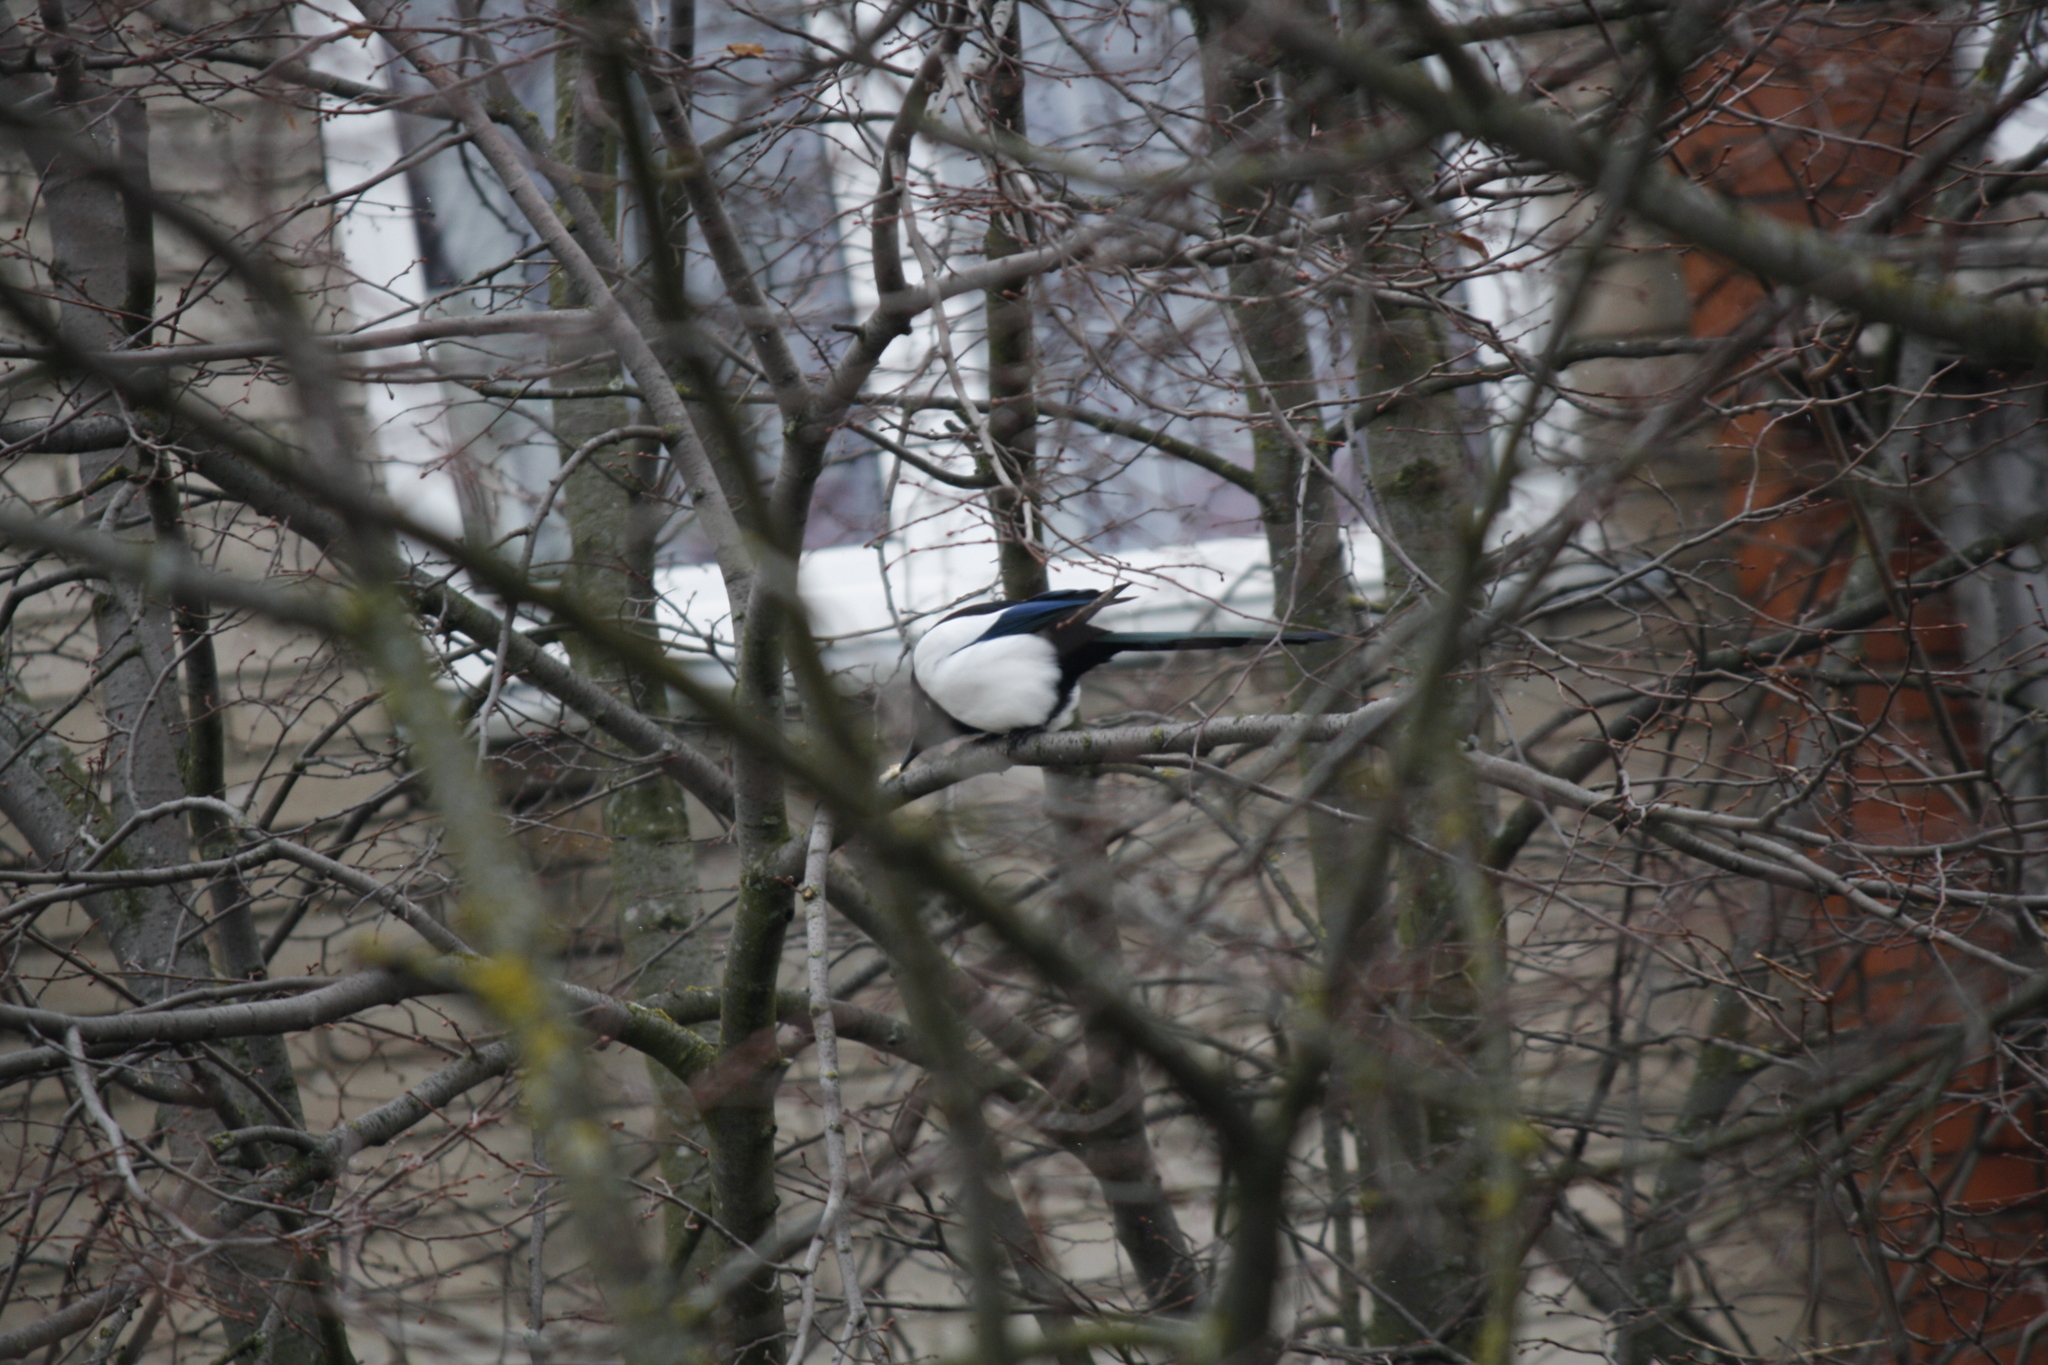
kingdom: Animalia
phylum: Chordata
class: Aves
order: Passeriformes
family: Corvidae
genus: Pica
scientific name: Pica pica
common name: Eurasian magpie
